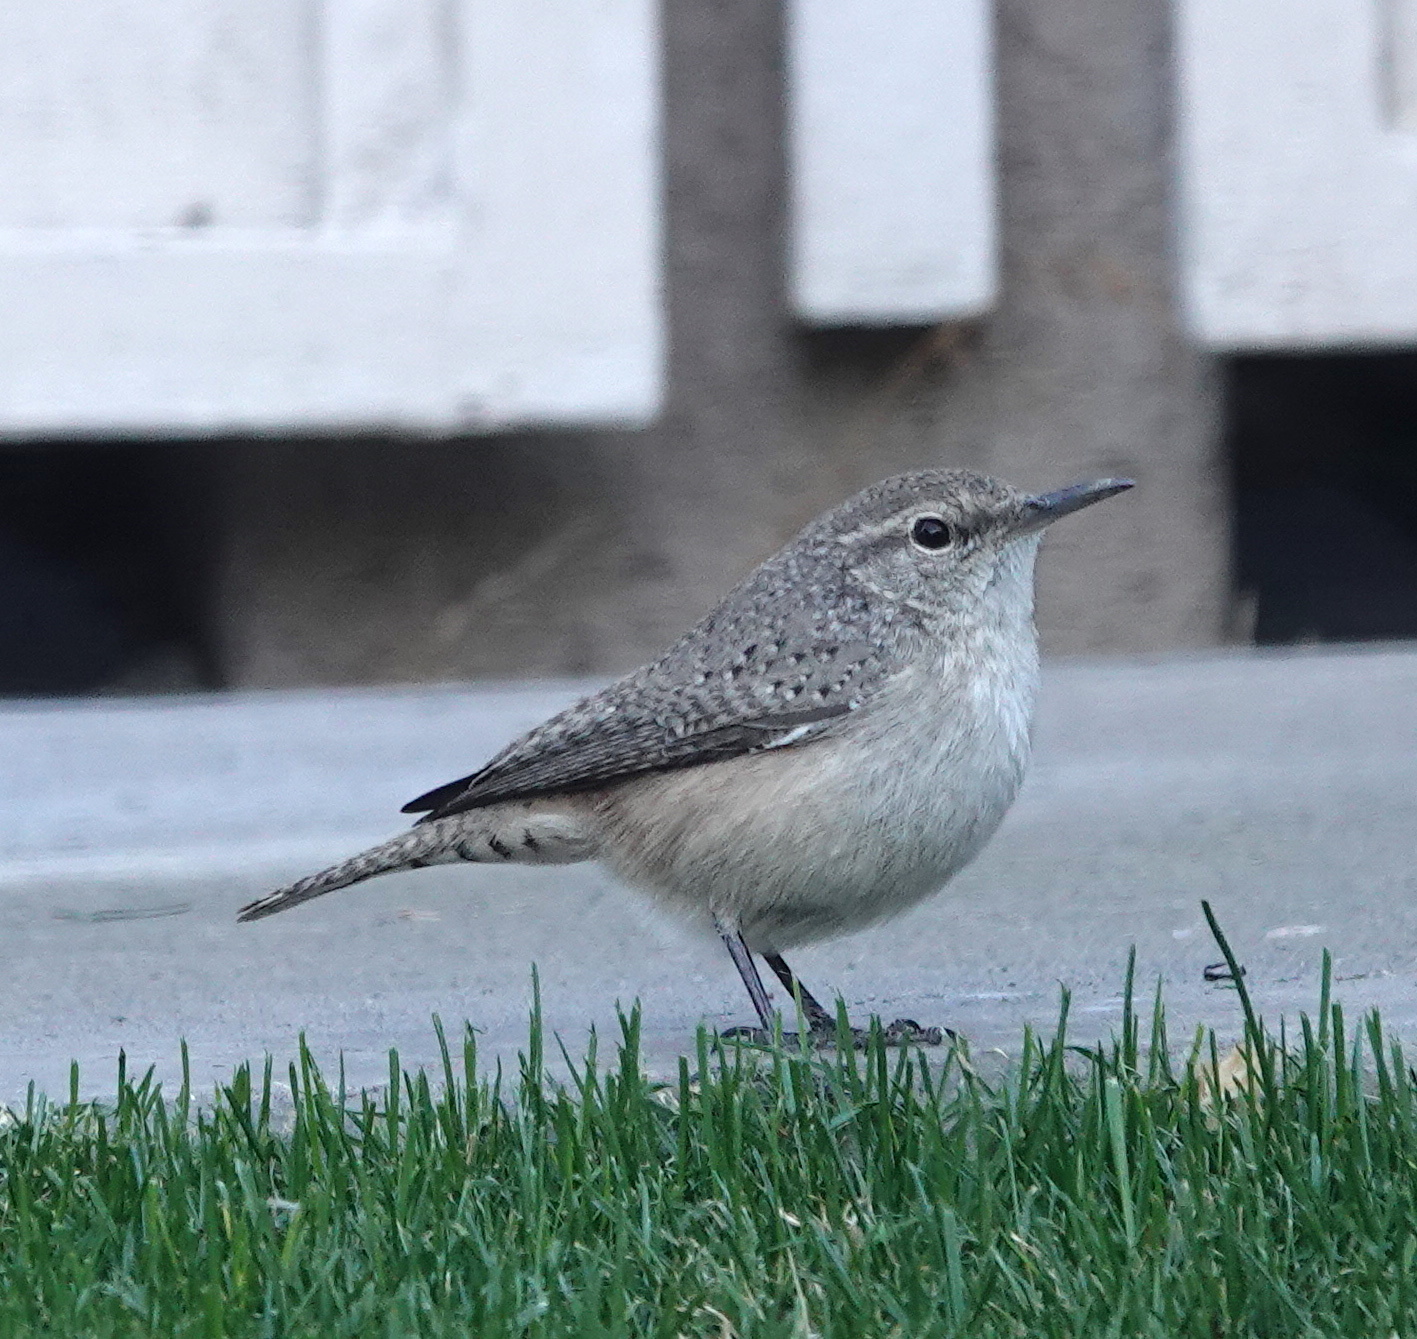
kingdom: Animalia
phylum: Chordata
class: Aves
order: Passeriformes
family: Troglodytidae
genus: Salpinctes
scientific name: Salpinctes obsoletus
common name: Rock wren
